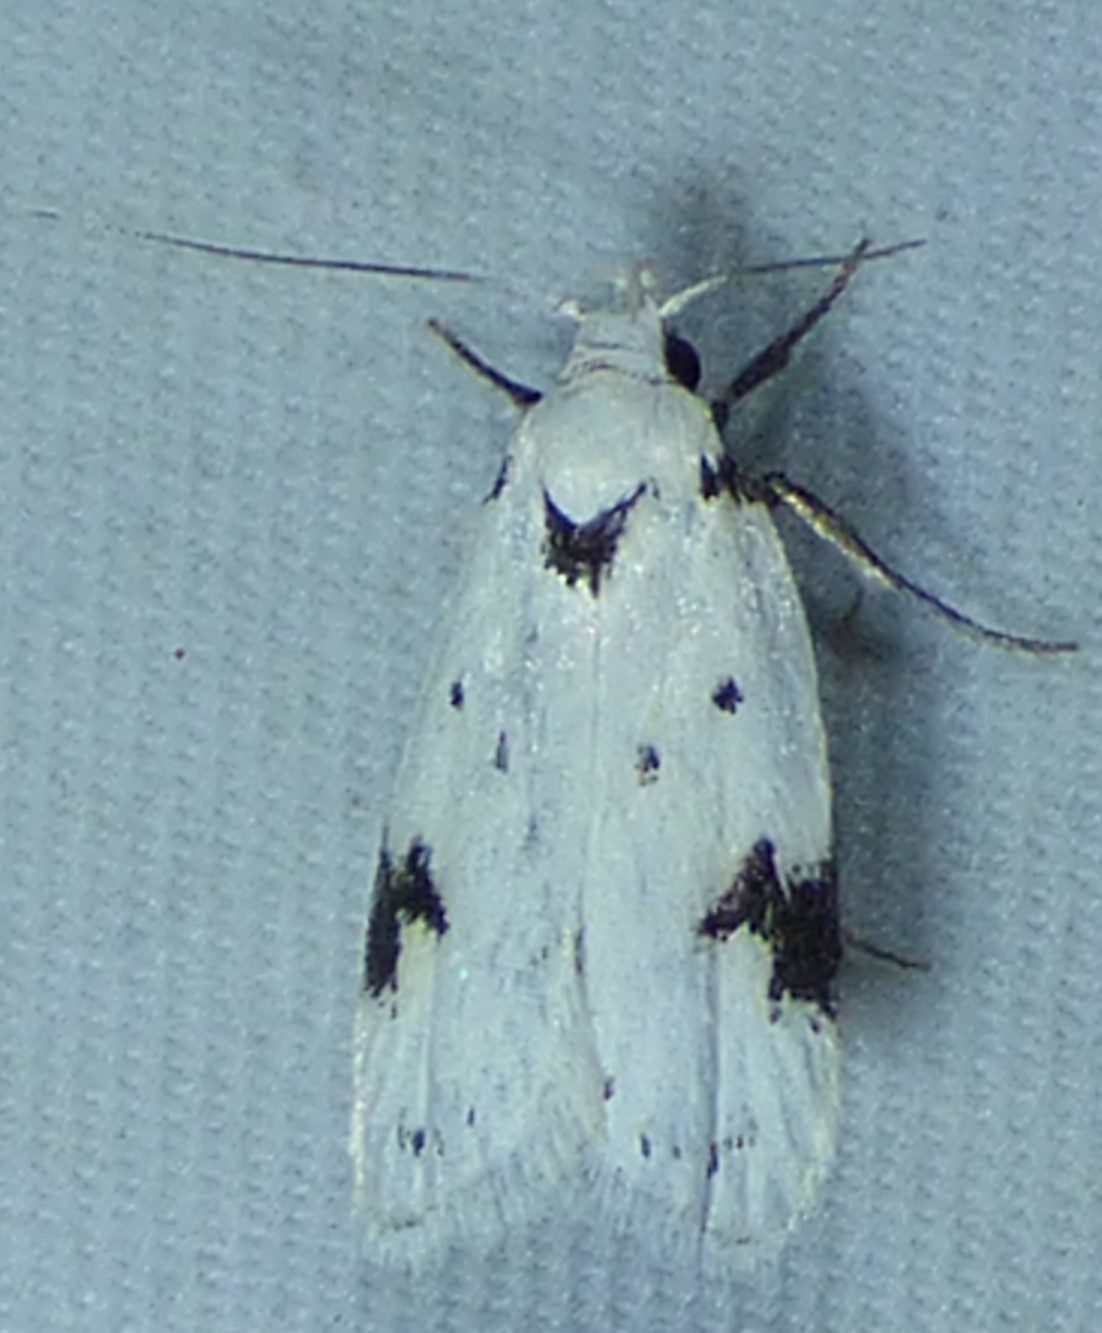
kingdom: Animalia
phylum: Arthropoda
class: Insecta
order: Lepidoptera
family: Oecophoridae
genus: Inga
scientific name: Inga sparsiciliella
